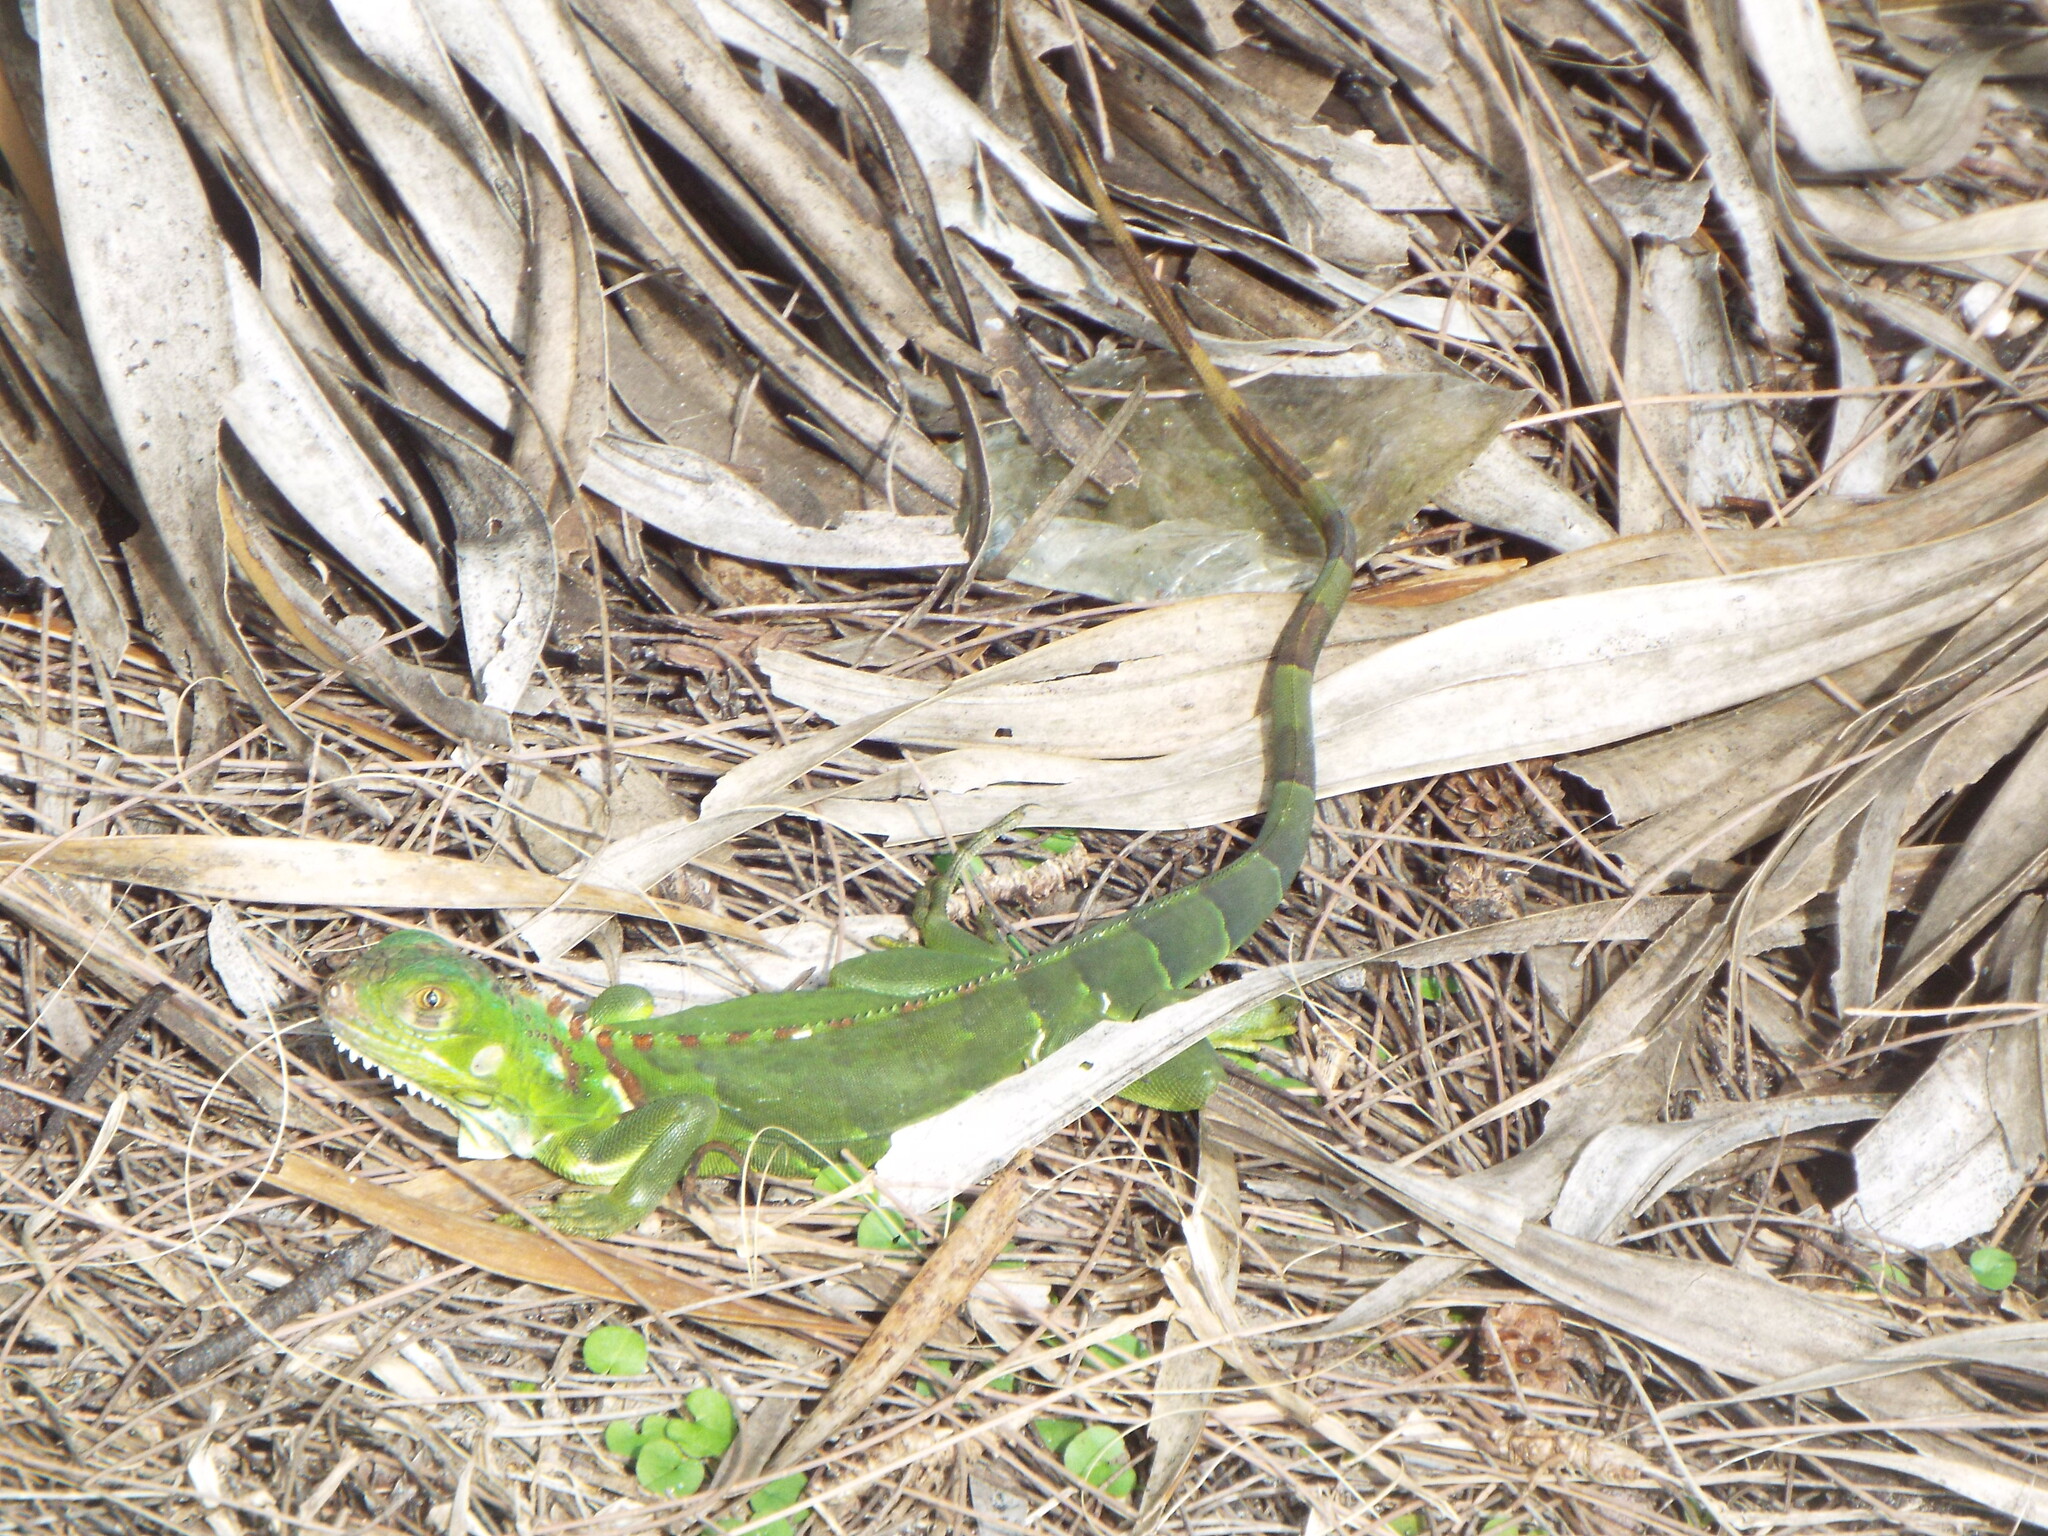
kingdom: Animalia
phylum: Chordata
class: Squamata
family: Iguanidae
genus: Iguana
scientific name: Iguana iguana
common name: Green iguana
